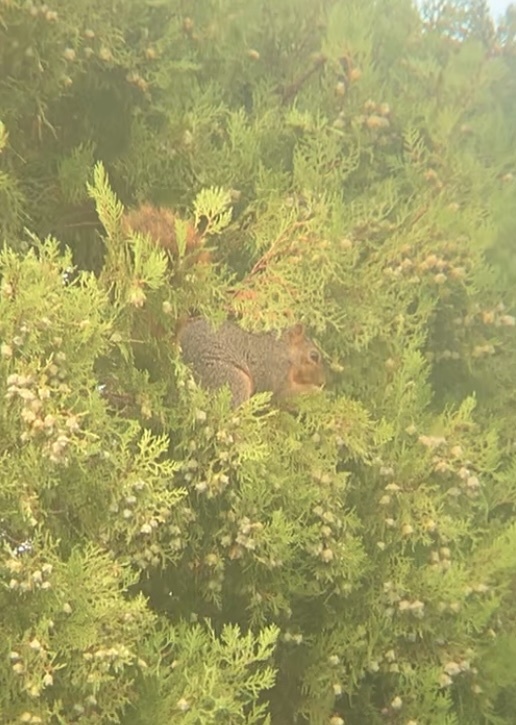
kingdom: Animalia
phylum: Chordata
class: Mammalia
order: Rodentia
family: Sciuridae
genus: Sciurus
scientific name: Sciurus niger
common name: Fox squirrel
